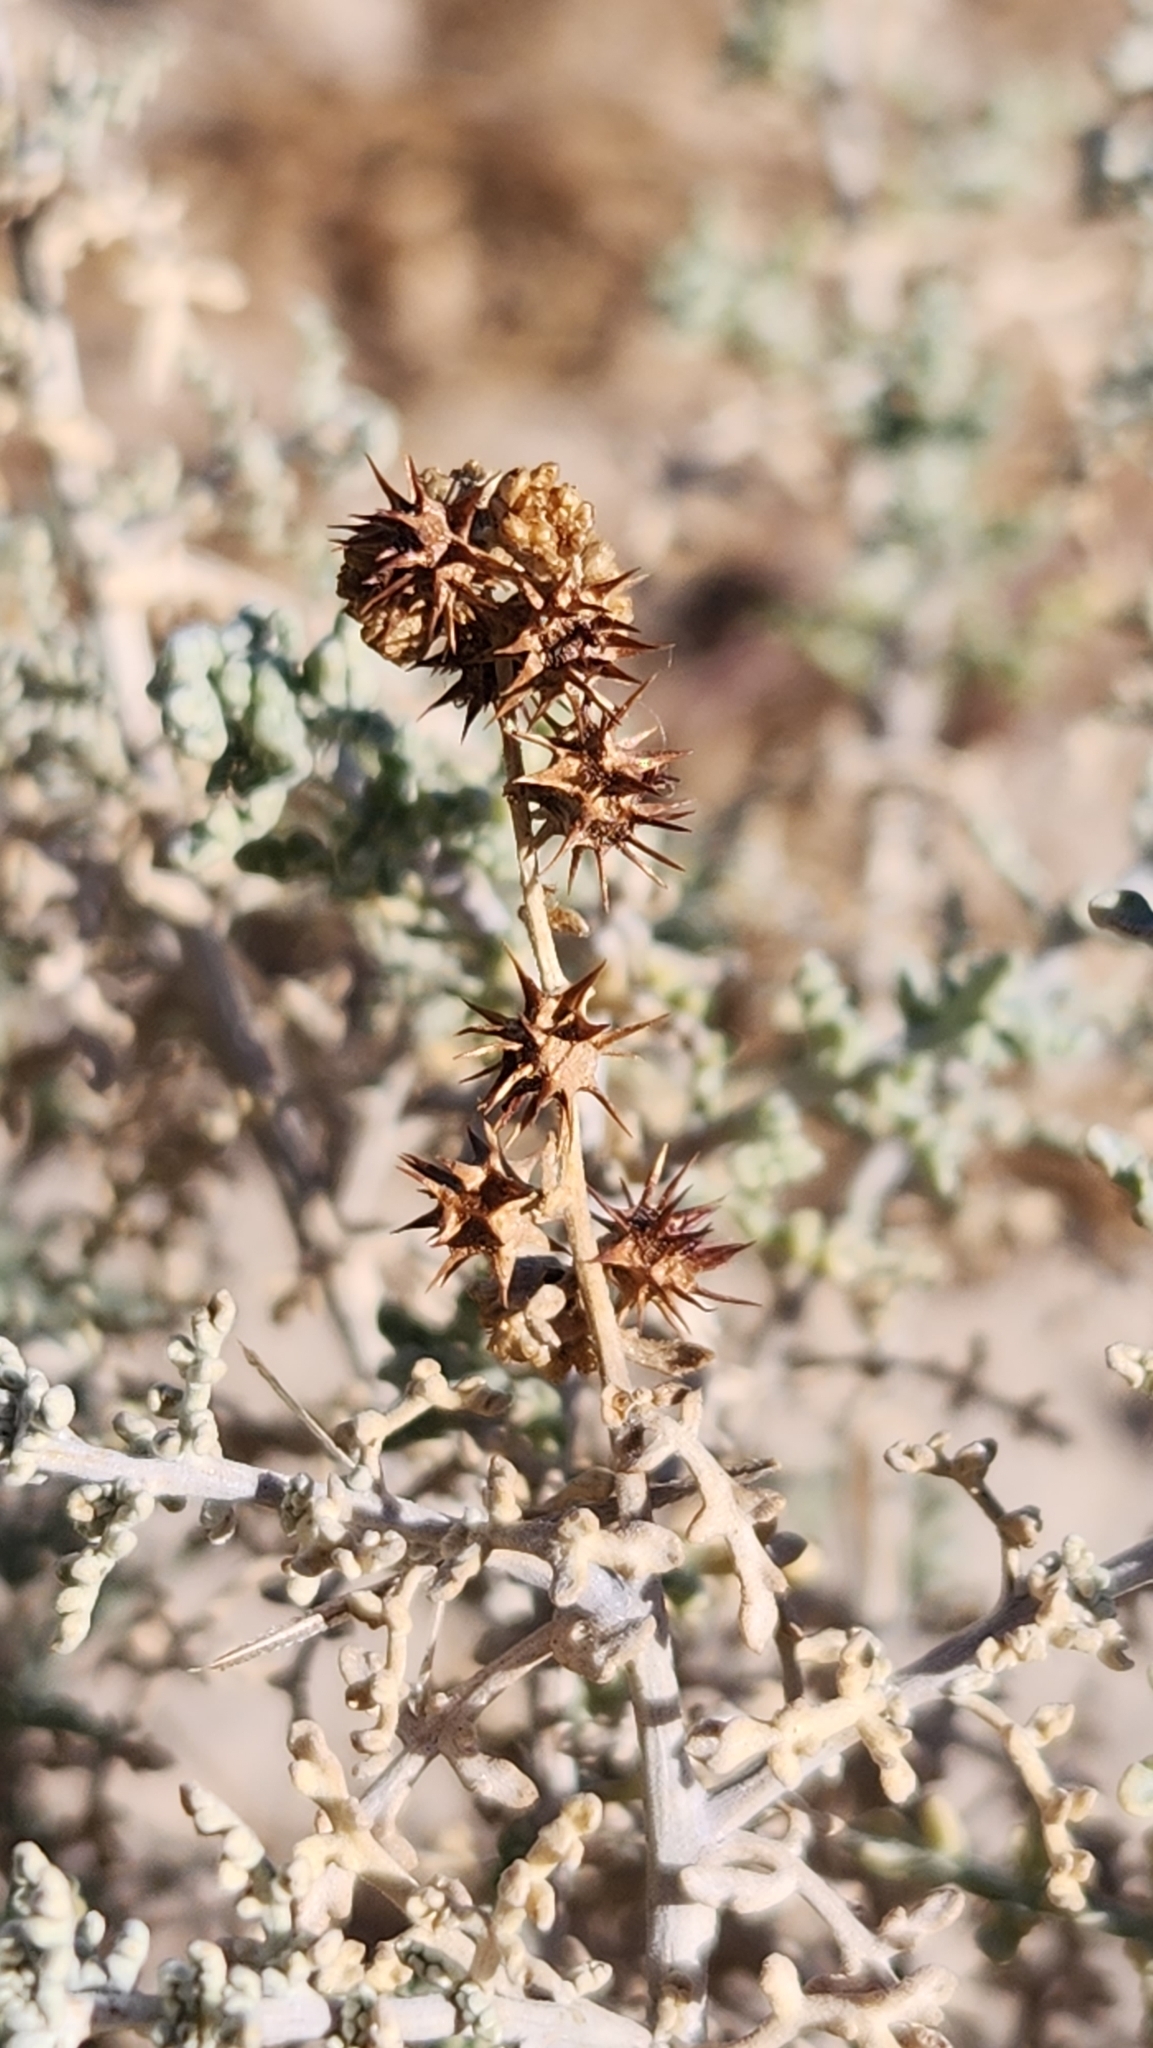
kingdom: Plantae
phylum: Tracheophyta
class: Magnoliopsida
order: Asterales
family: Asteraceae
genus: Ambrosia
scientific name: Ambrosia dumosa
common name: Bur-sage
